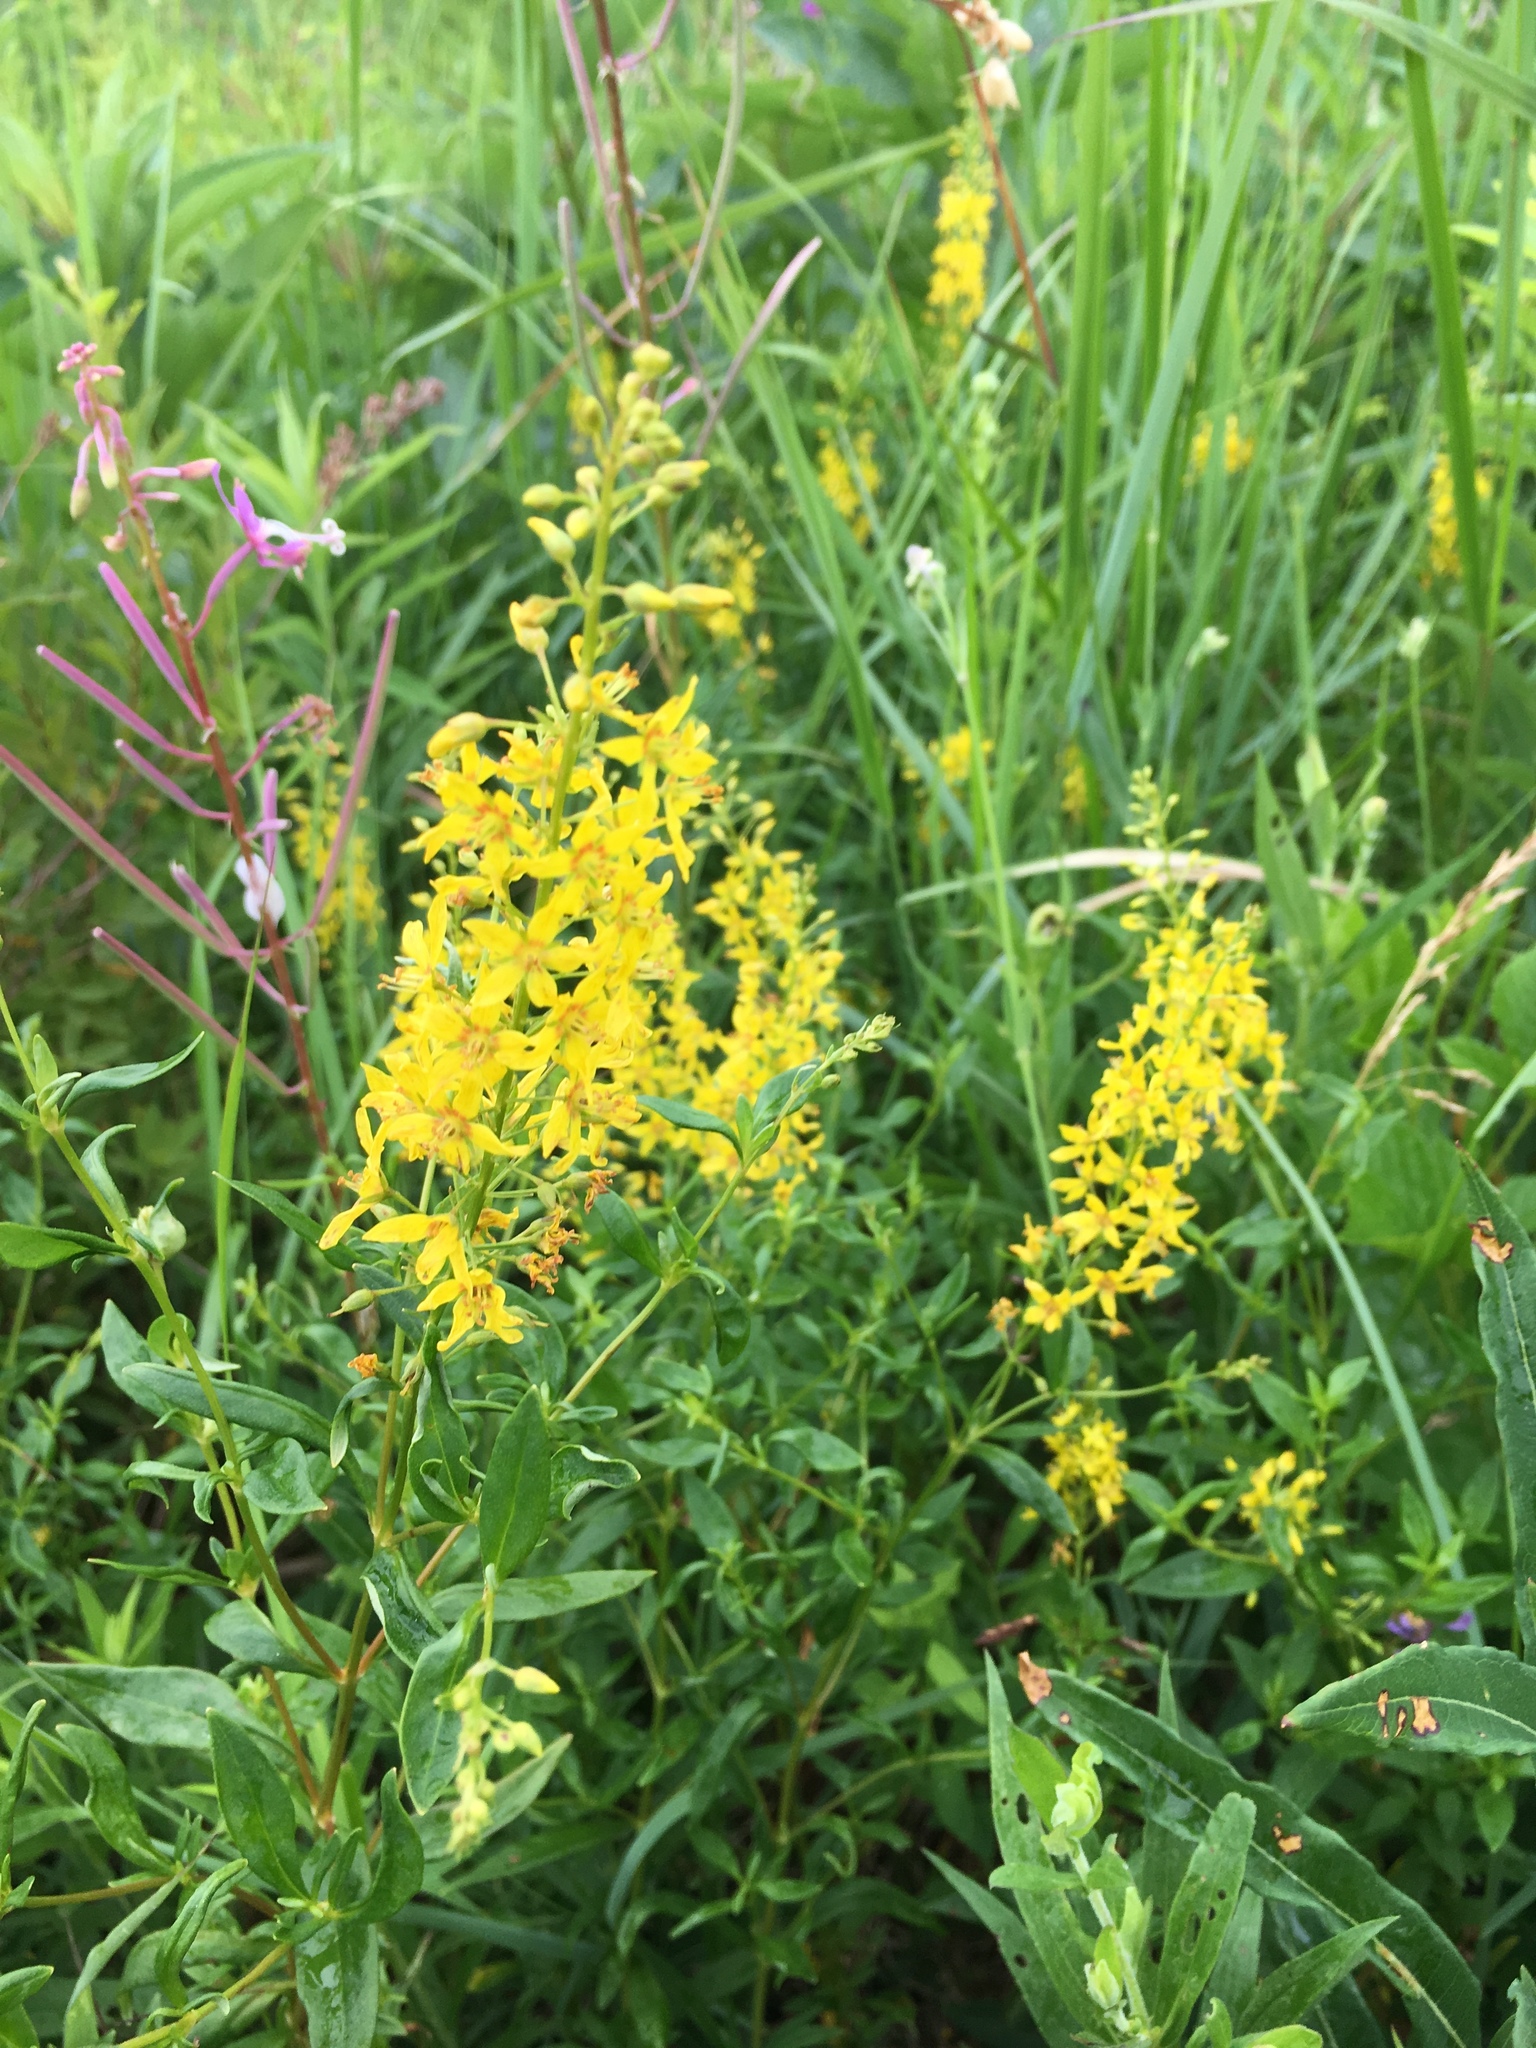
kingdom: Plantae
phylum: Tracheophyta
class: Magnoliopsida
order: Ericales
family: Primulaceae
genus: Lysimachia
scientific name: Lysimachia terrestris
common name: Lake loosestrife
